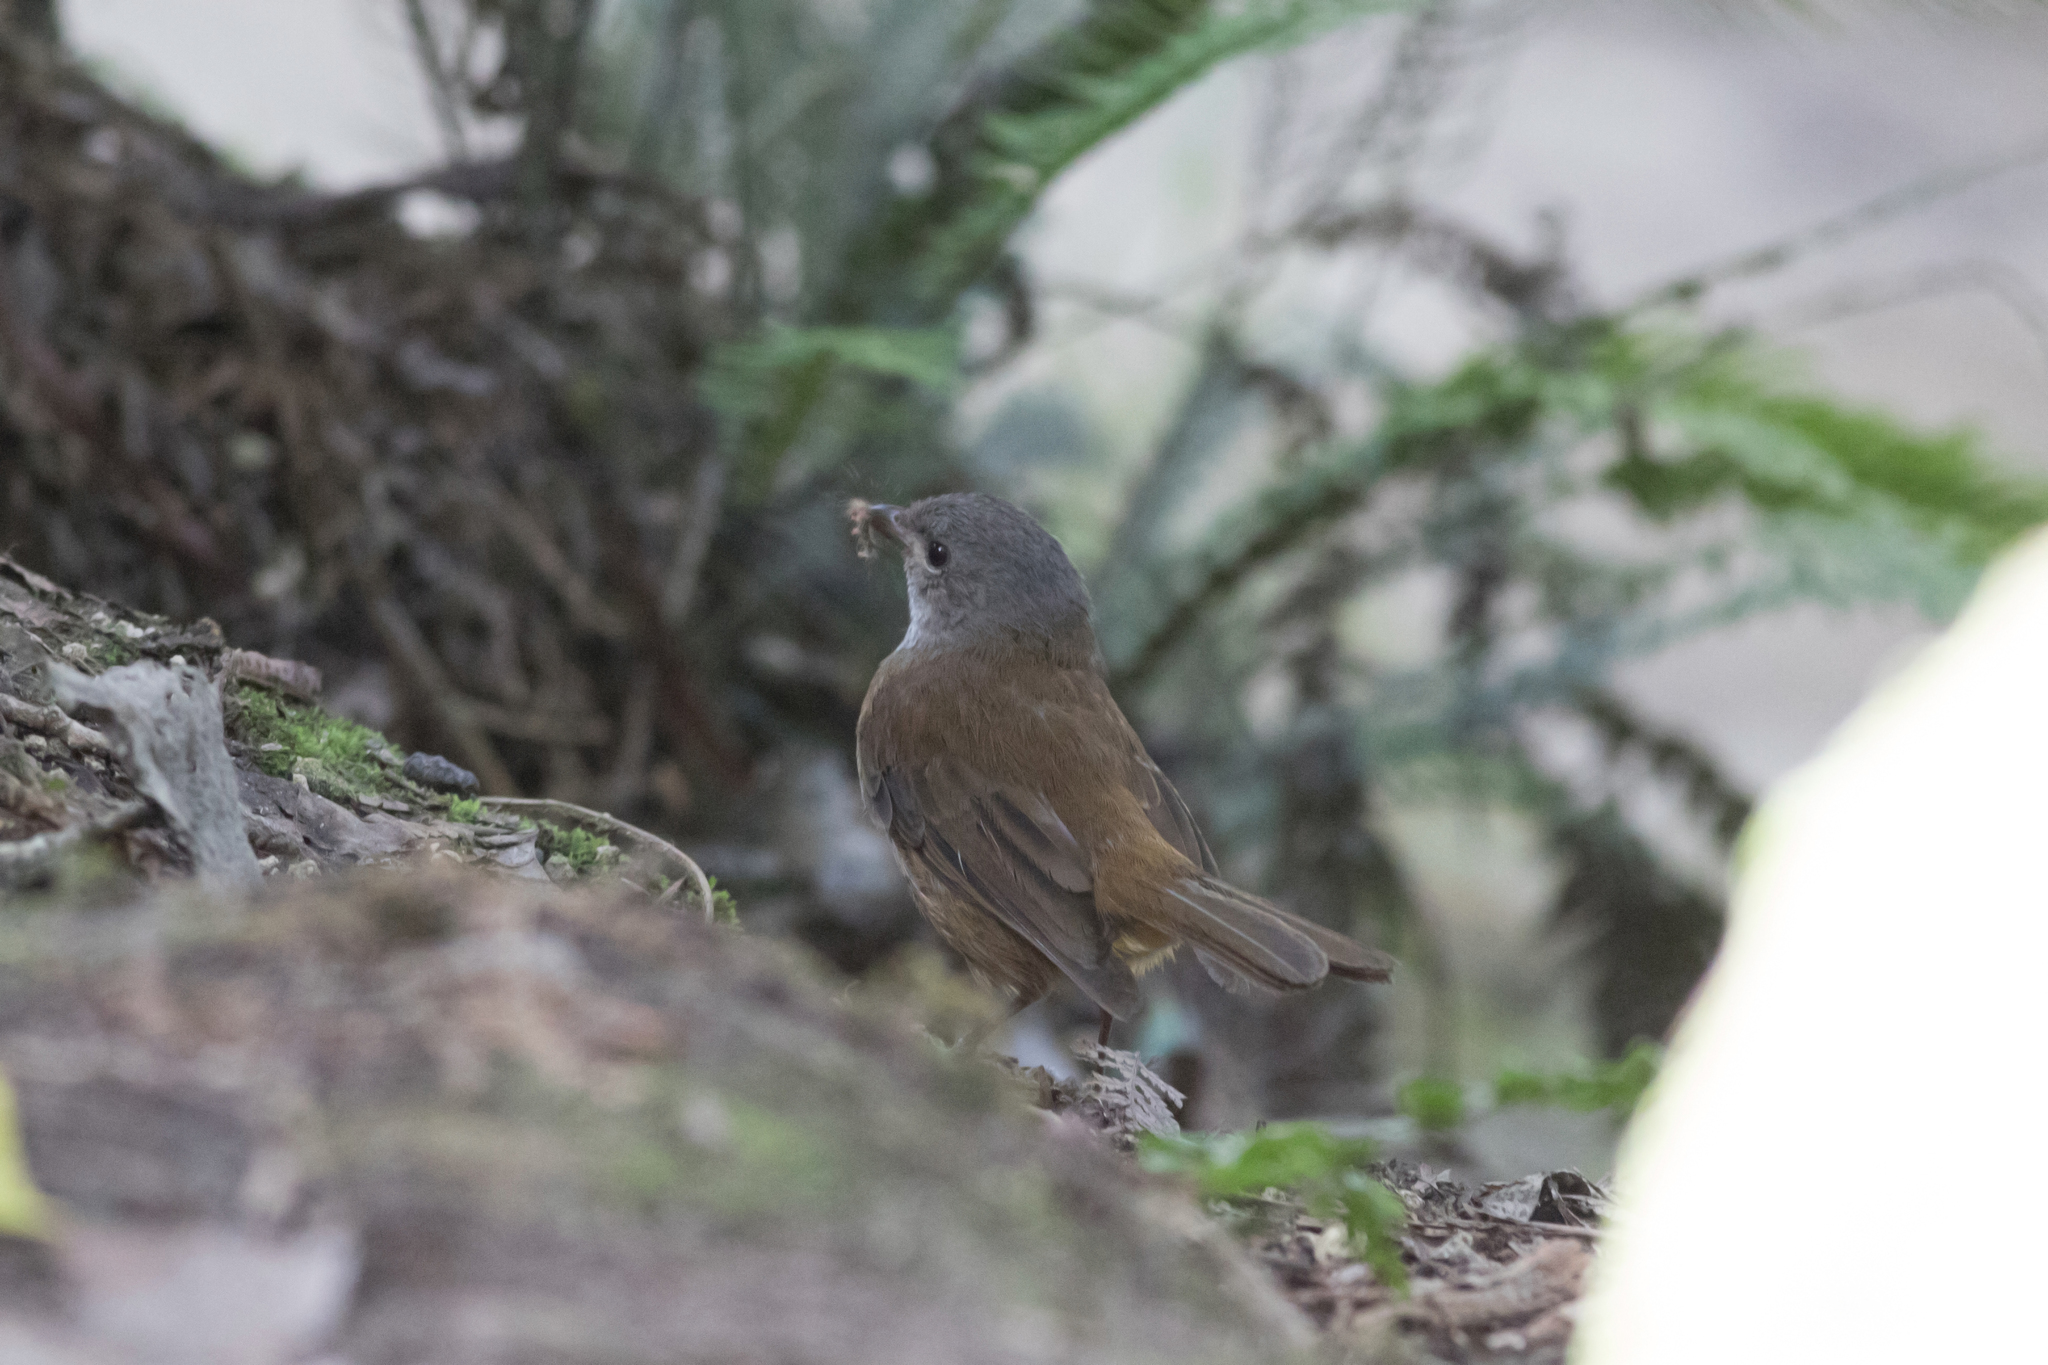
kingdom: Animalia
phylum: Chordata
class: Aves
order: Passeriformes
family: Pachycephalidae
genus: Pachycephala
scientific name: Pachycephala olivacea
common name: Olive whistler
